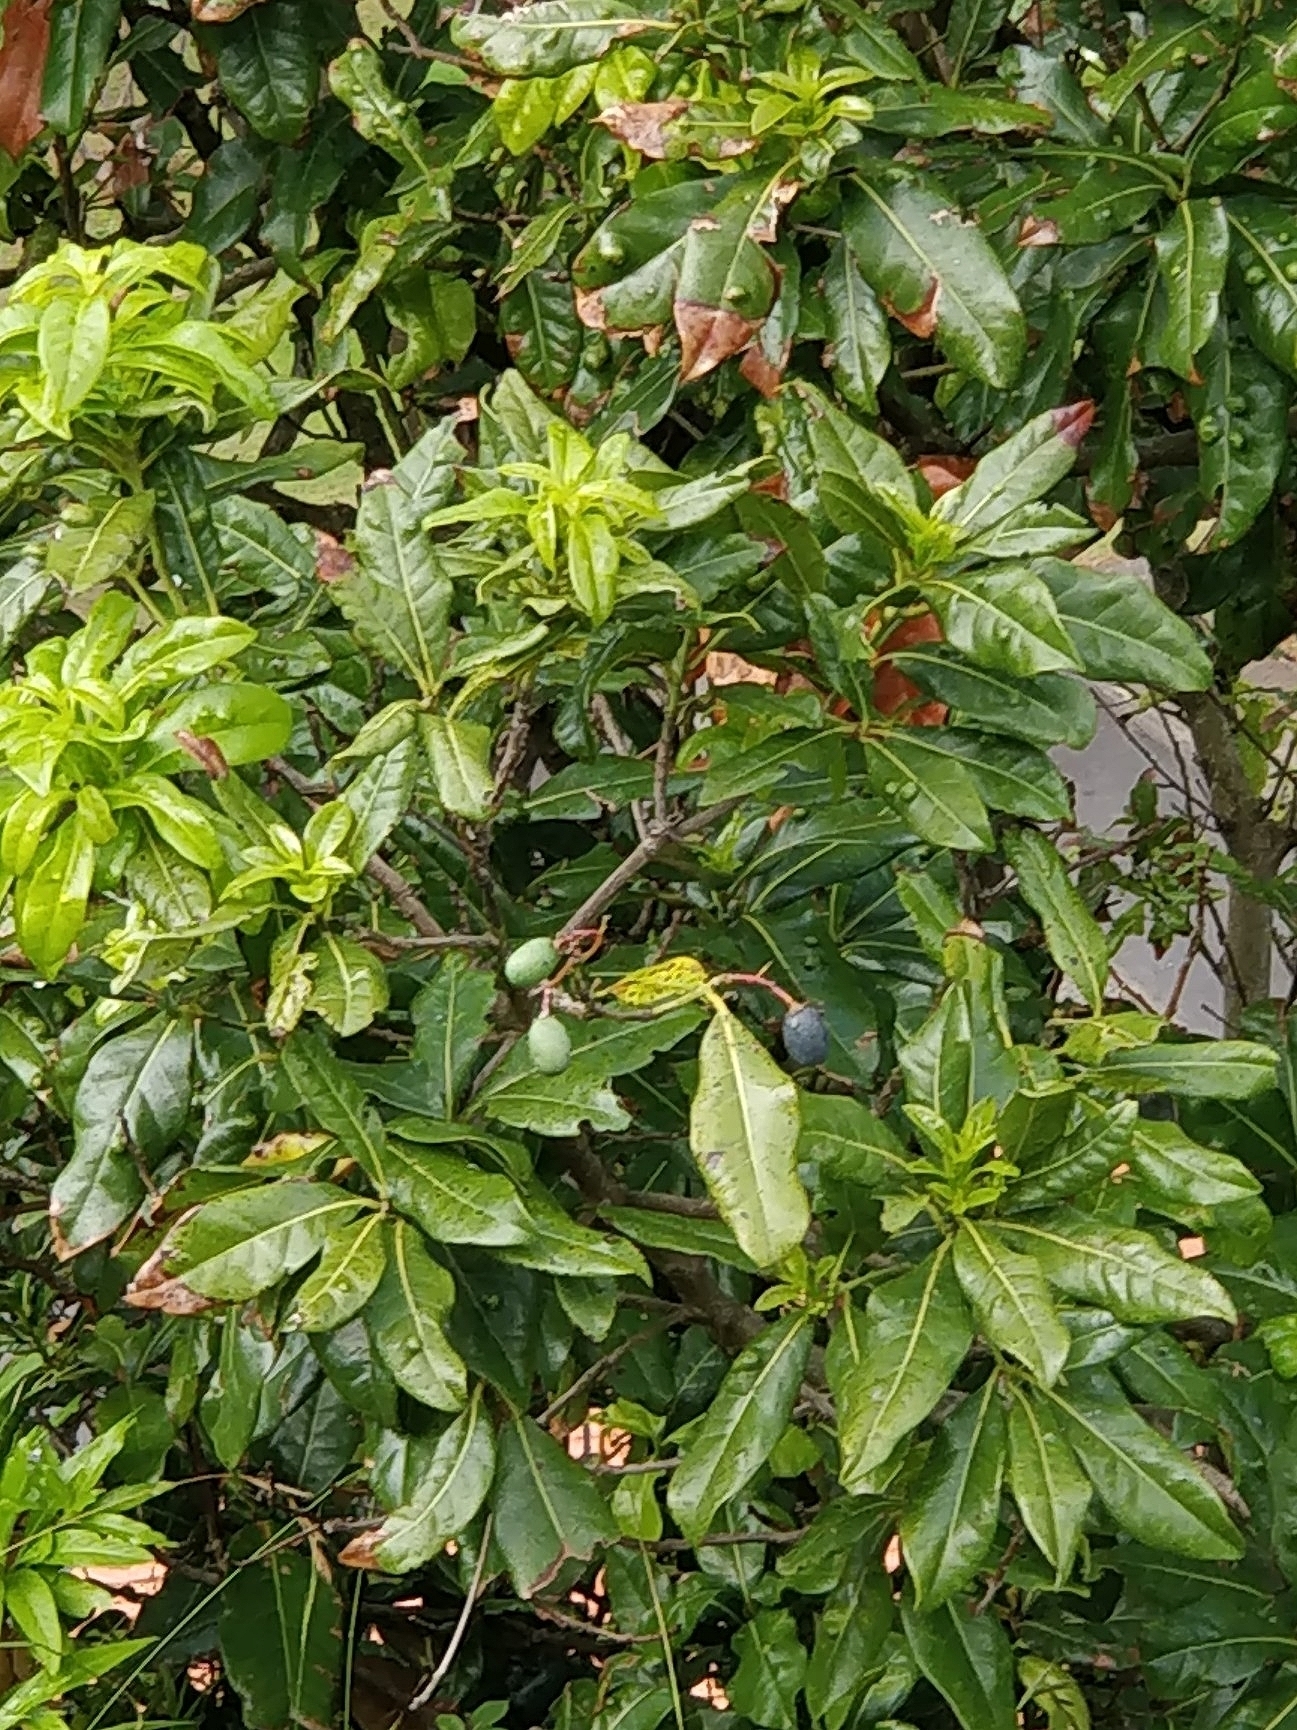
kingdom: Plantae
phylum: Tracheophyta
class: Magnoliopsida
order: Laurales
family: Lauraceae
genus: Apollonias
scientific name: Apollonias barbujana
